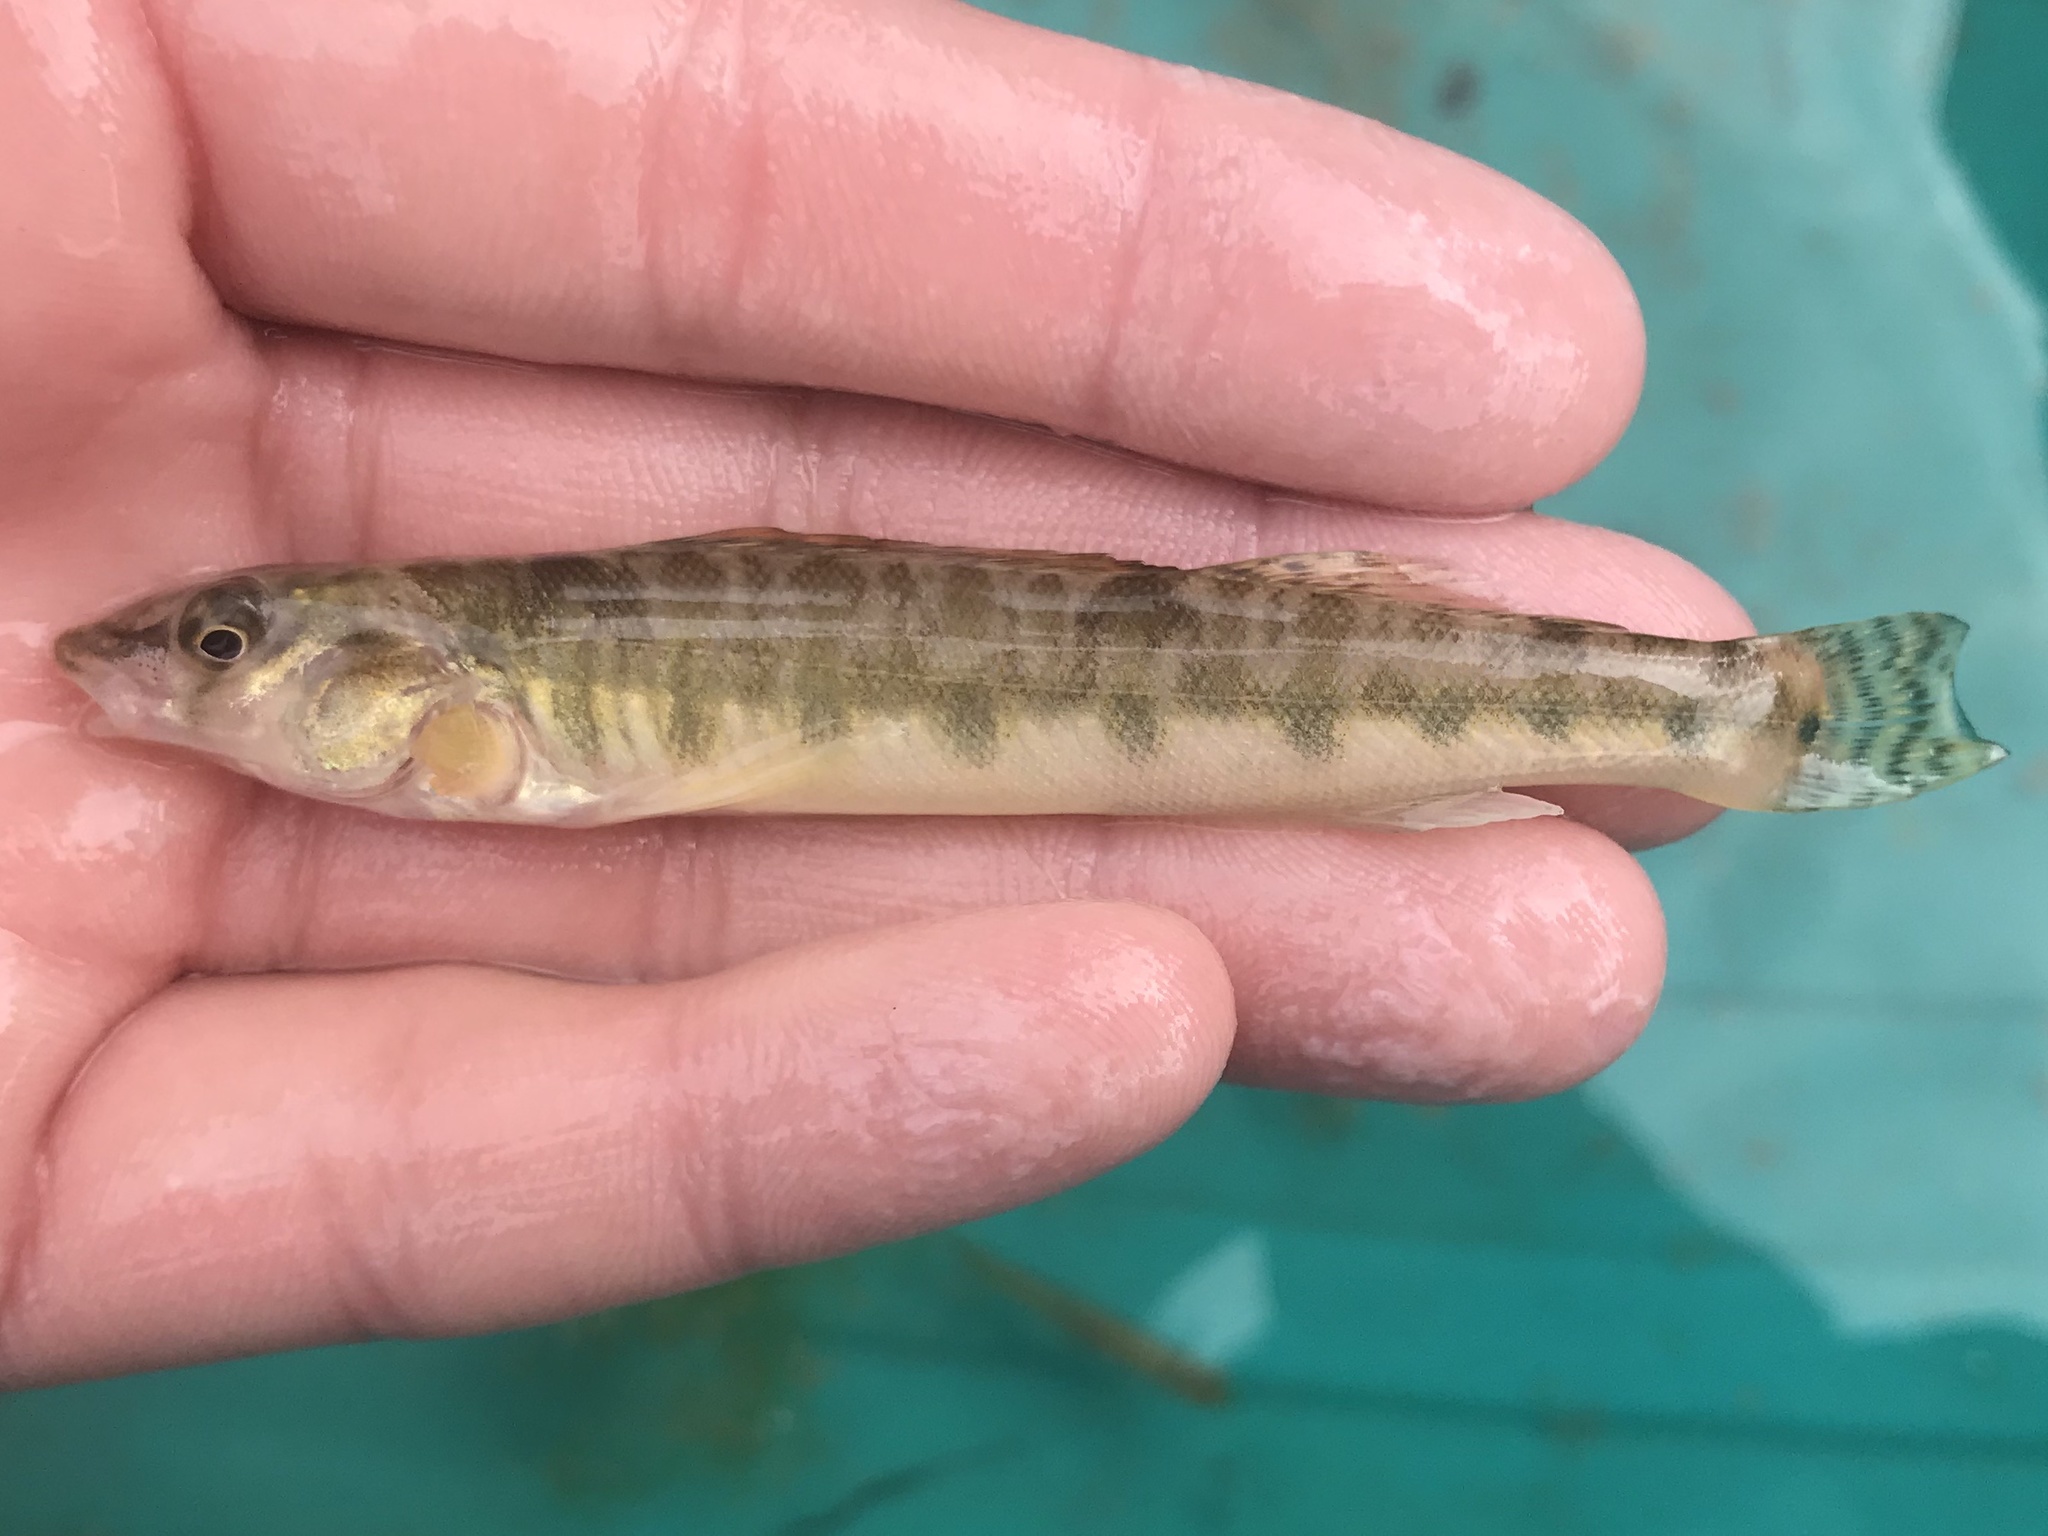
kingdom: Animalia
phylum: Chordata
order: Perciformes
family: Percidae
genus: Percina
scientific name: Percina carbonaria
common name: Texas logperch
